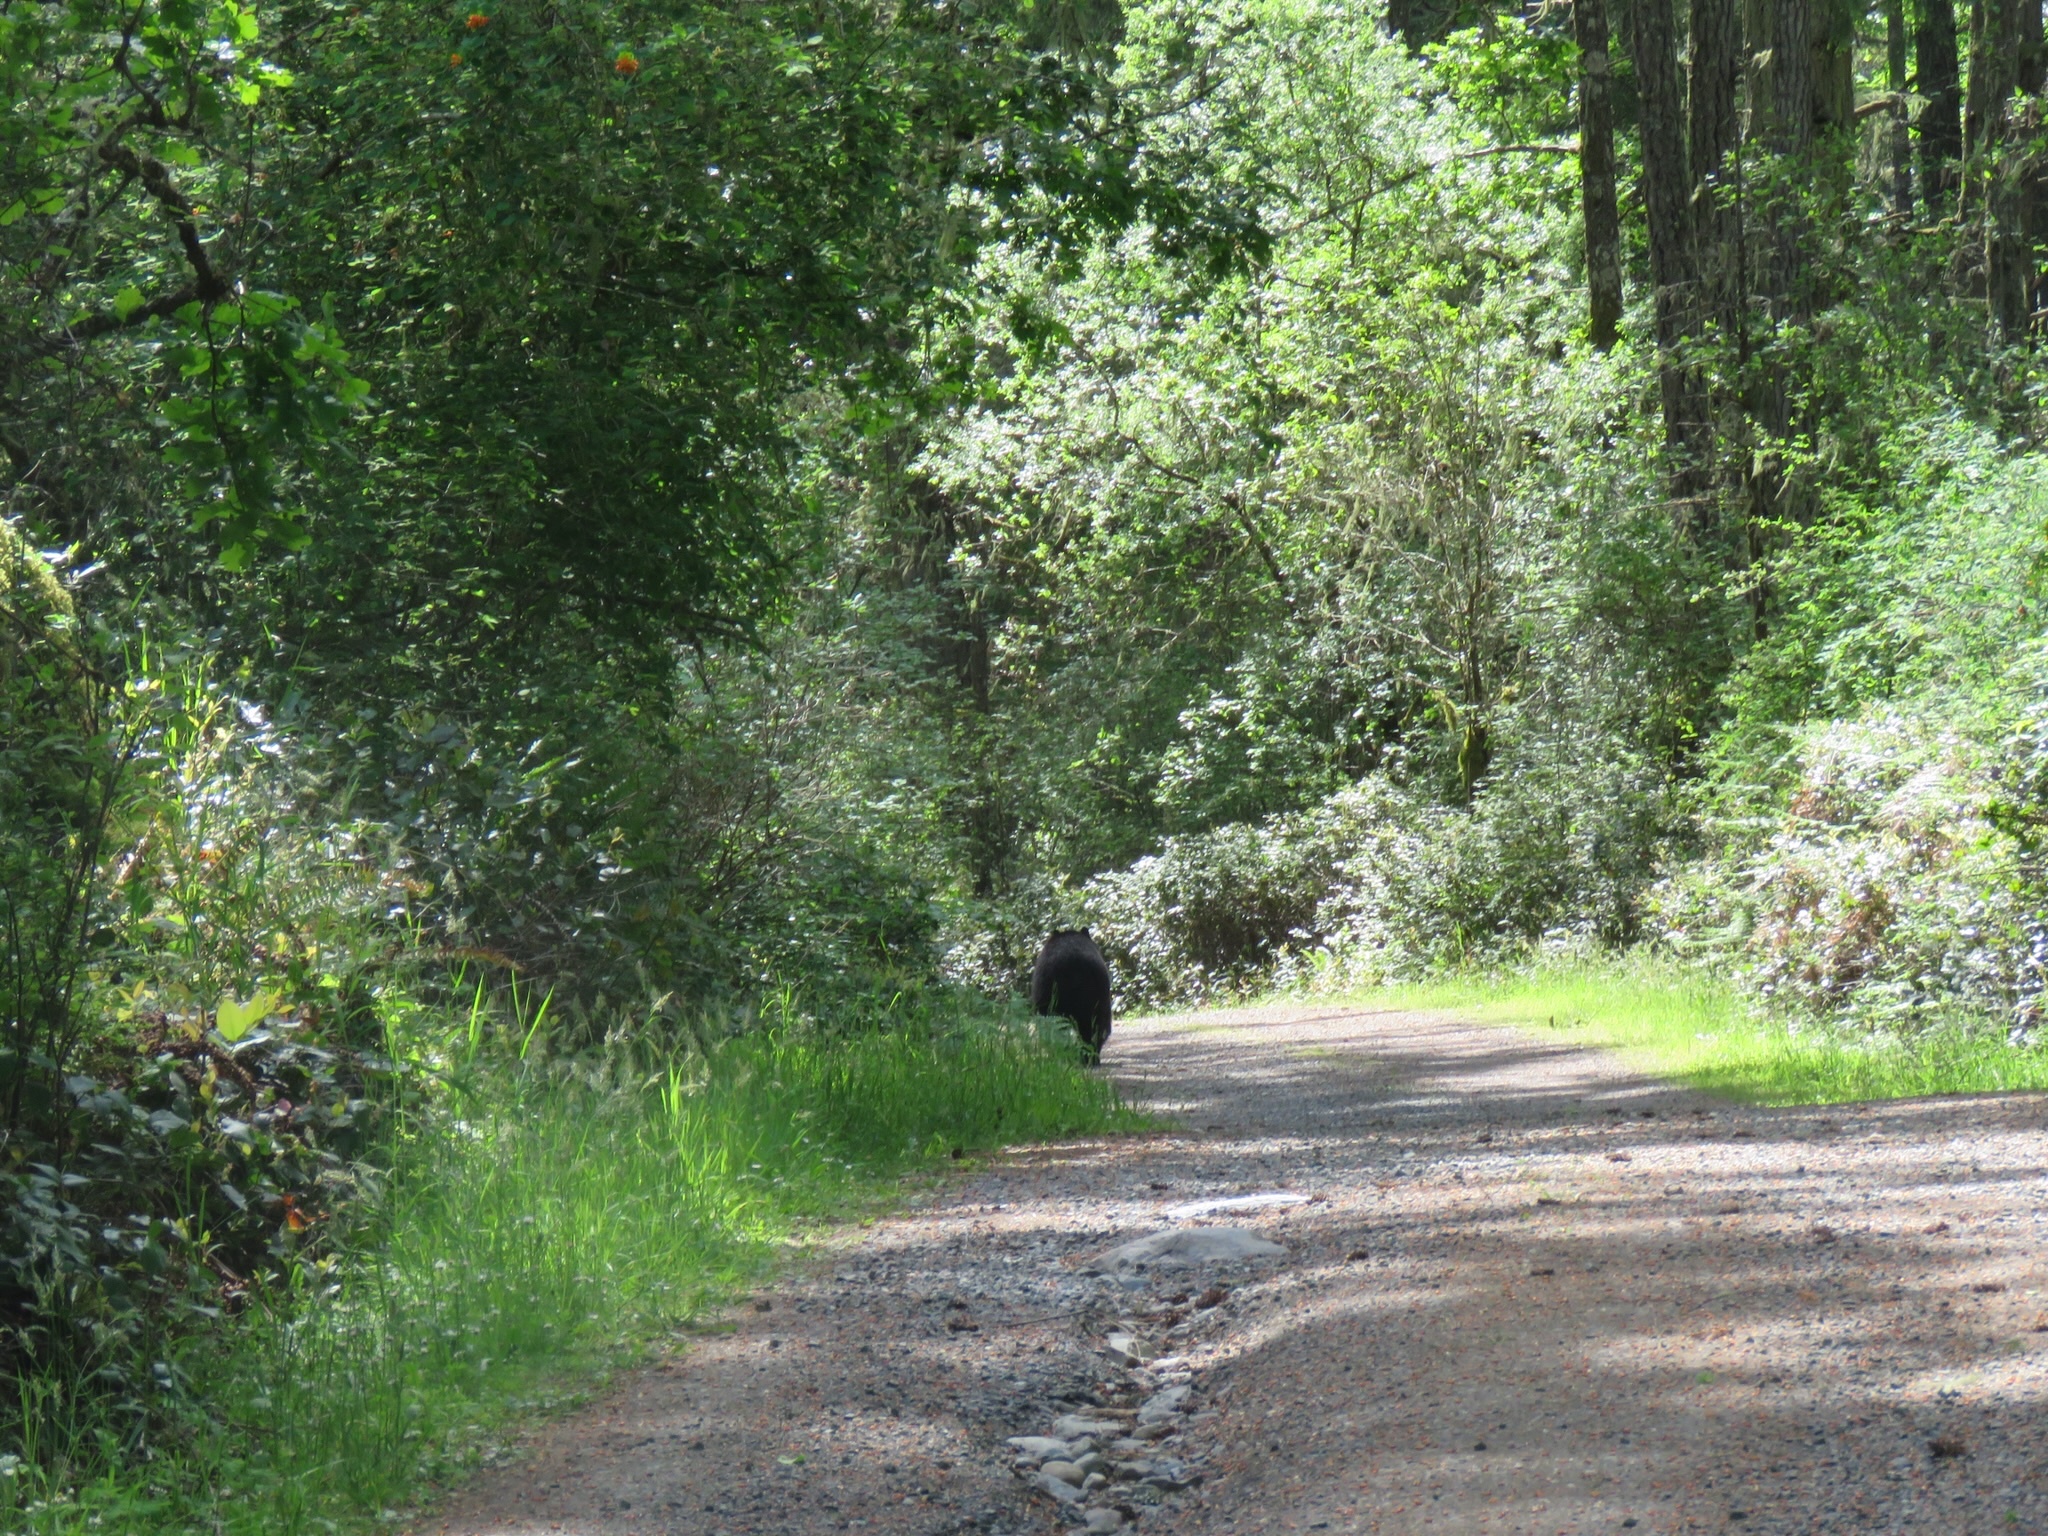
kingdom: Animalia
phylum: Chordata
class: Mammalia
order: Carnivora
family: Ursidae
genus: Ursus
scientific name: Ursus americanus
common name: American black bear
